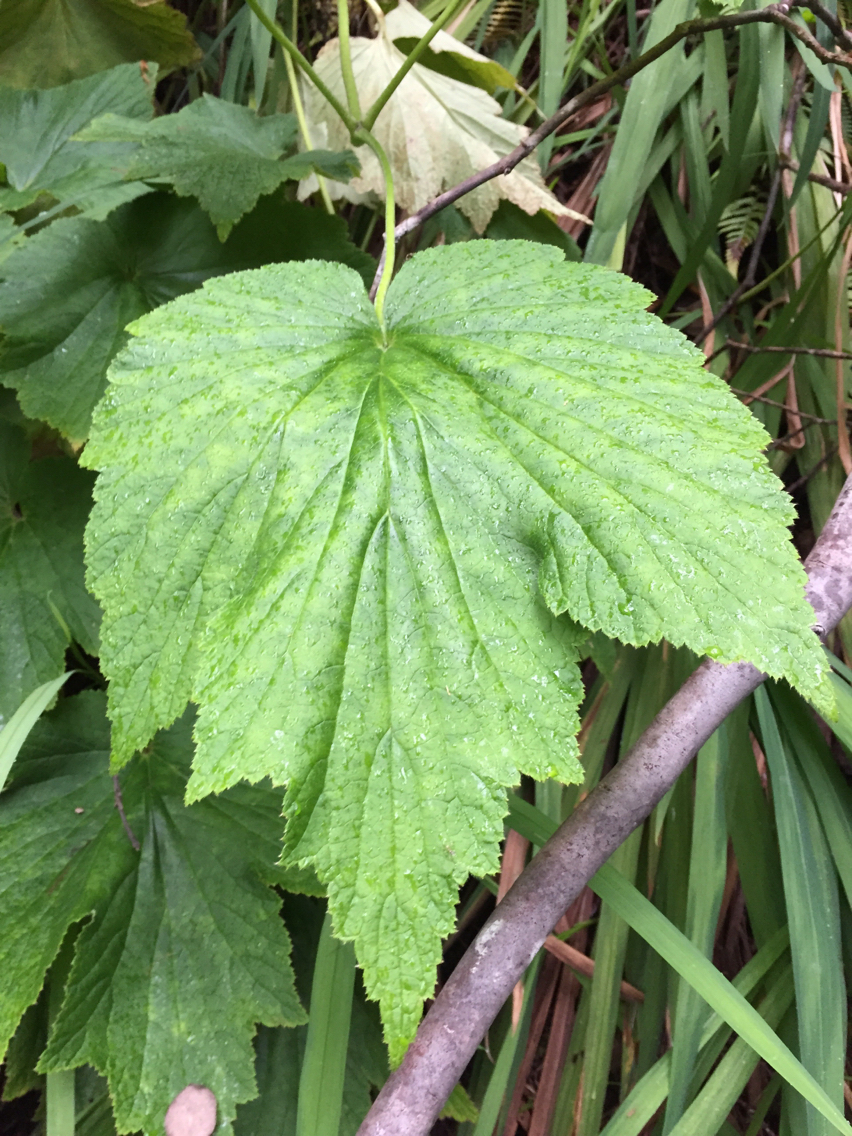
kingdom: Plantae
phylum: Tracheophyta
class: Magnoliopsida
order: Ranunculales
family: Ranunculaceae
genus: Eriocapitella
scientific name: Eriocapitella japonica
